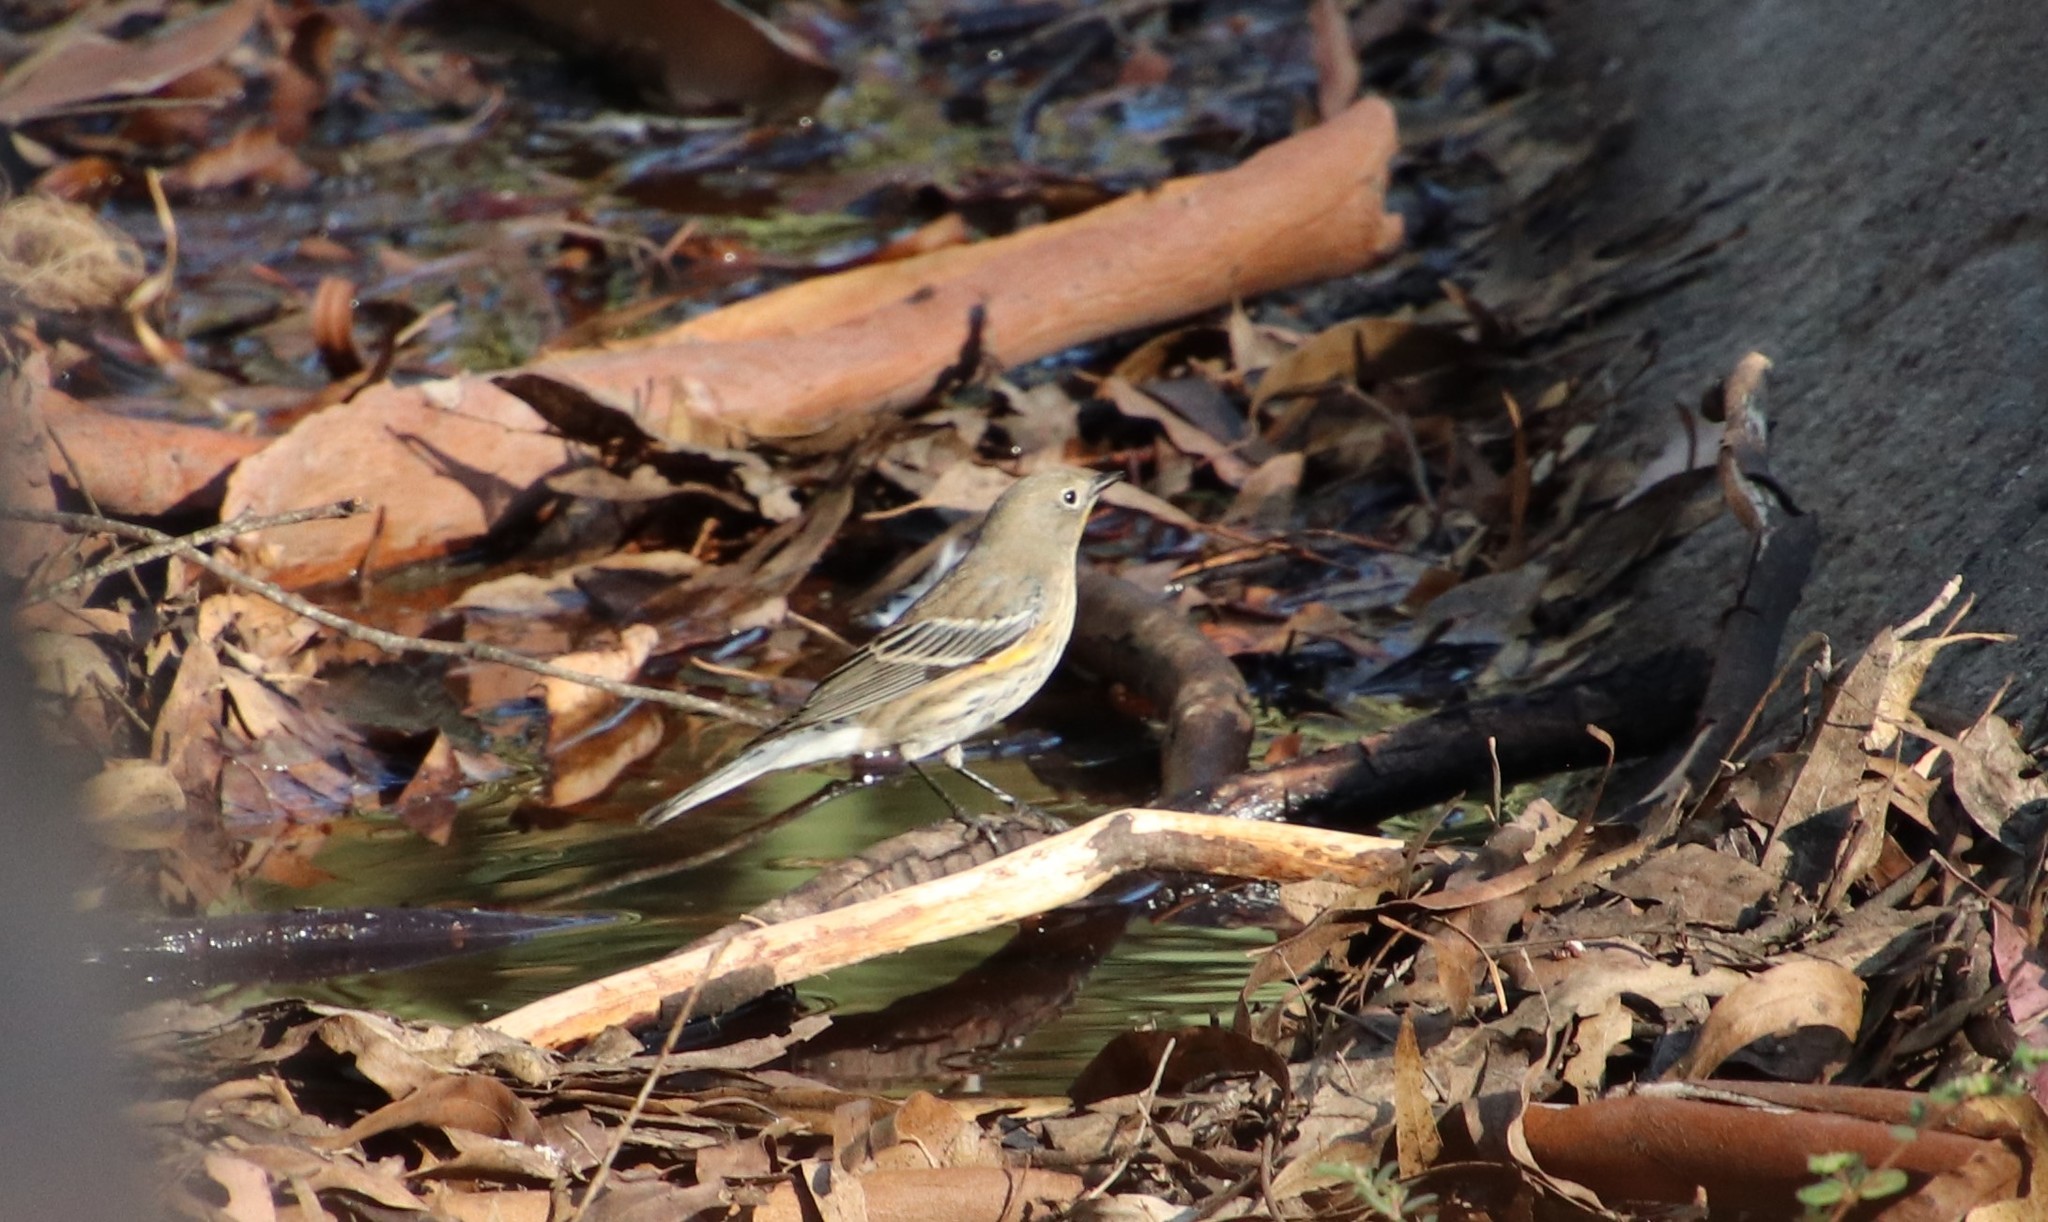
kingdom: Animalia
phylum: Chordata
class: Aves
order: Passeriformes
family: Parulidae
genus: Setophaga
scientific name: Setophaga auduboni
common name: Audubon's warbler
